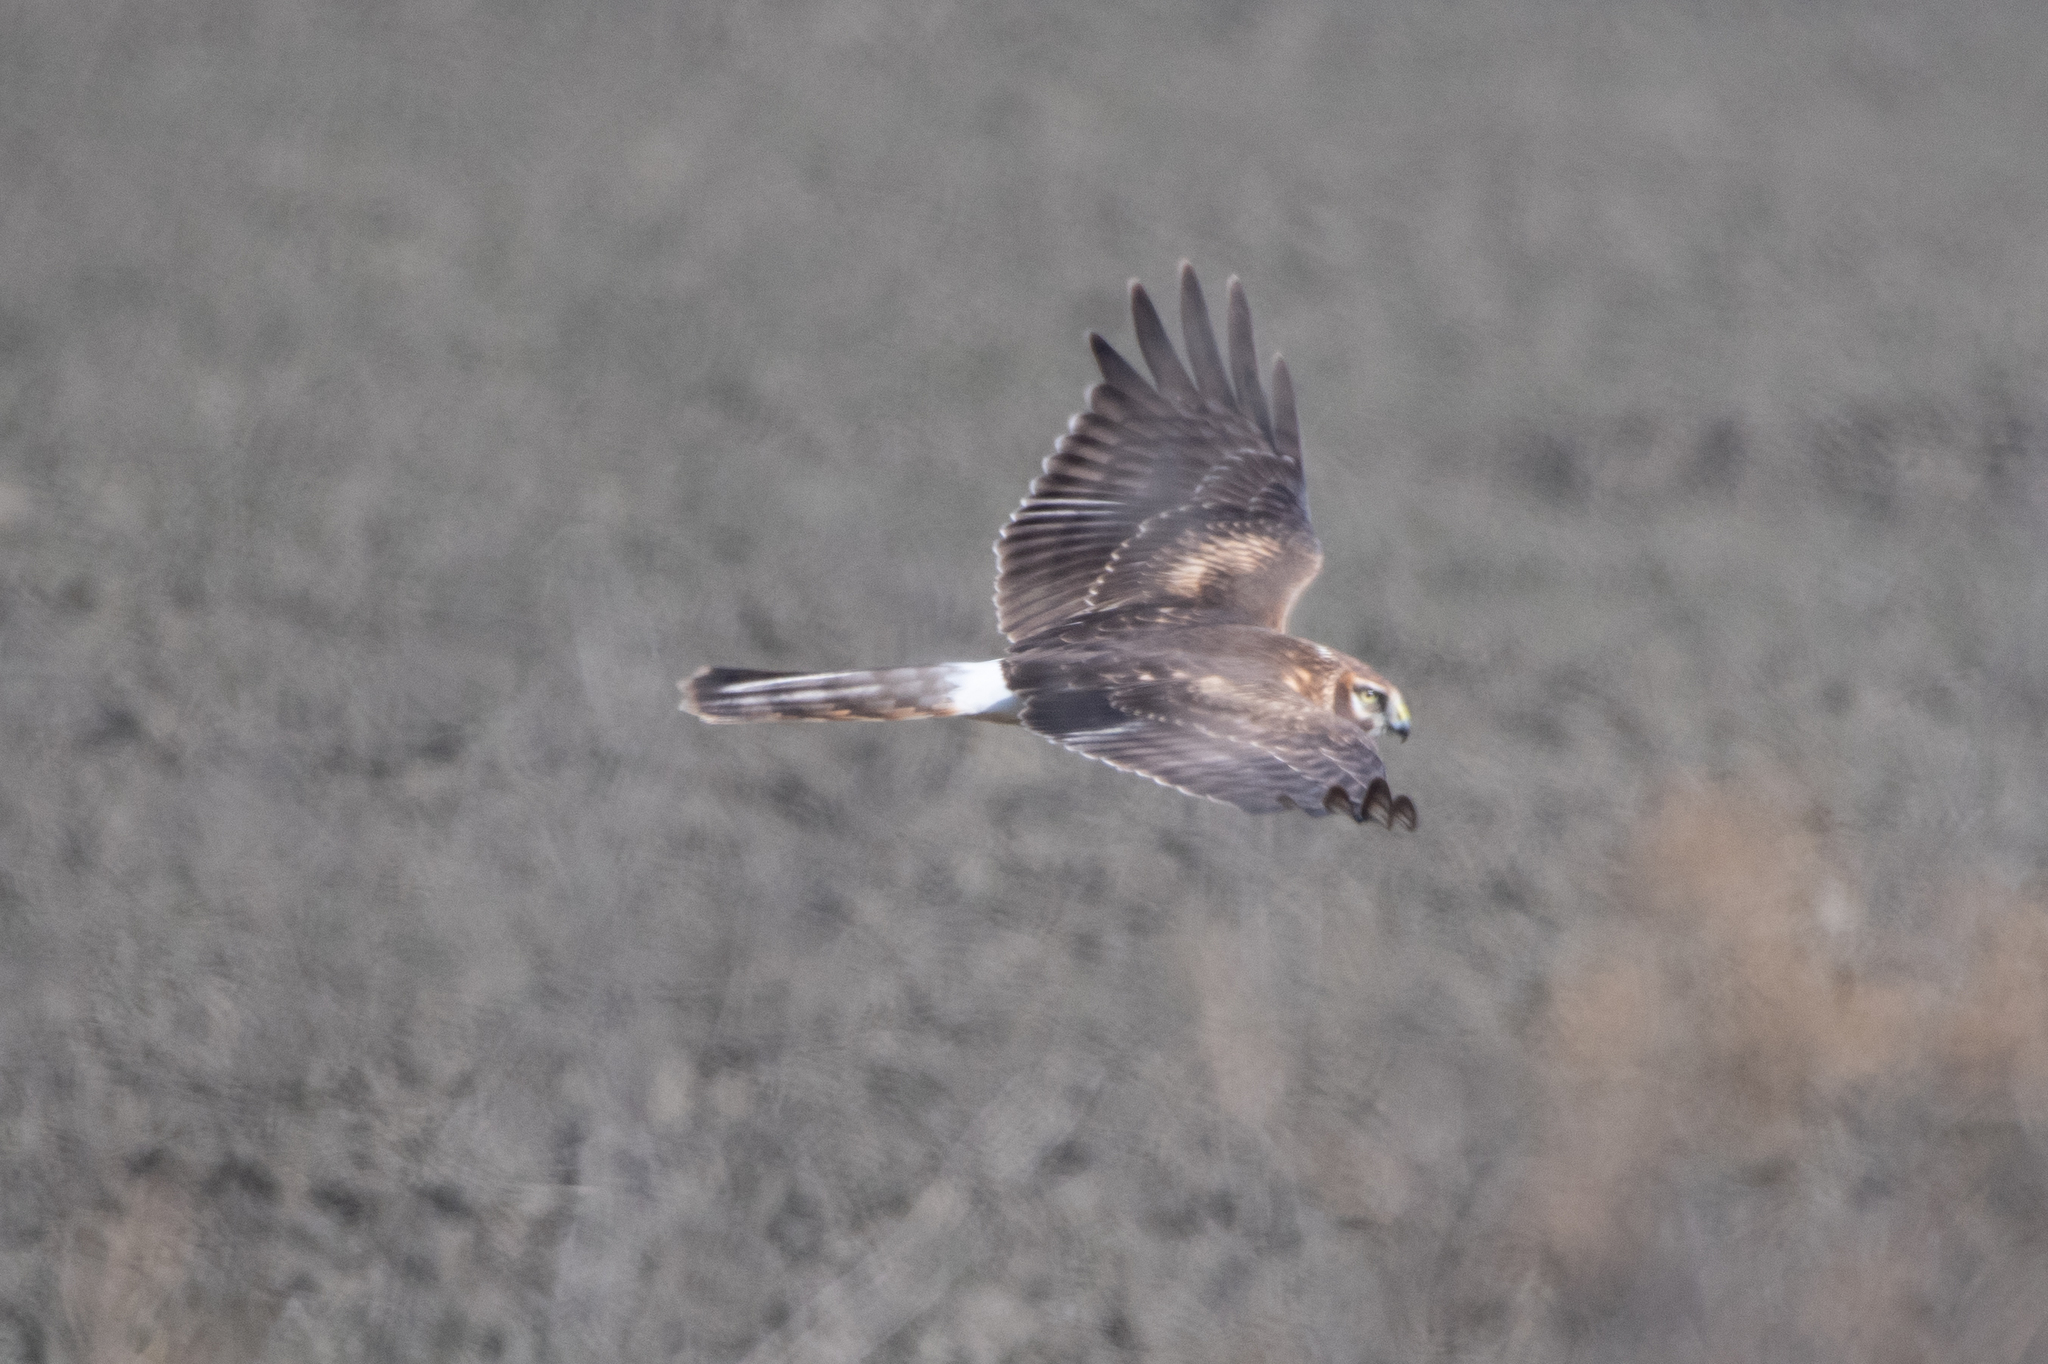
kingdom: Animalia
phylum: Chordata
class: Aves
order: Accipitriformes
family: Accipitridae
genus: Circus
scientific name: Circus cyaneus
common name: Hen harrier
